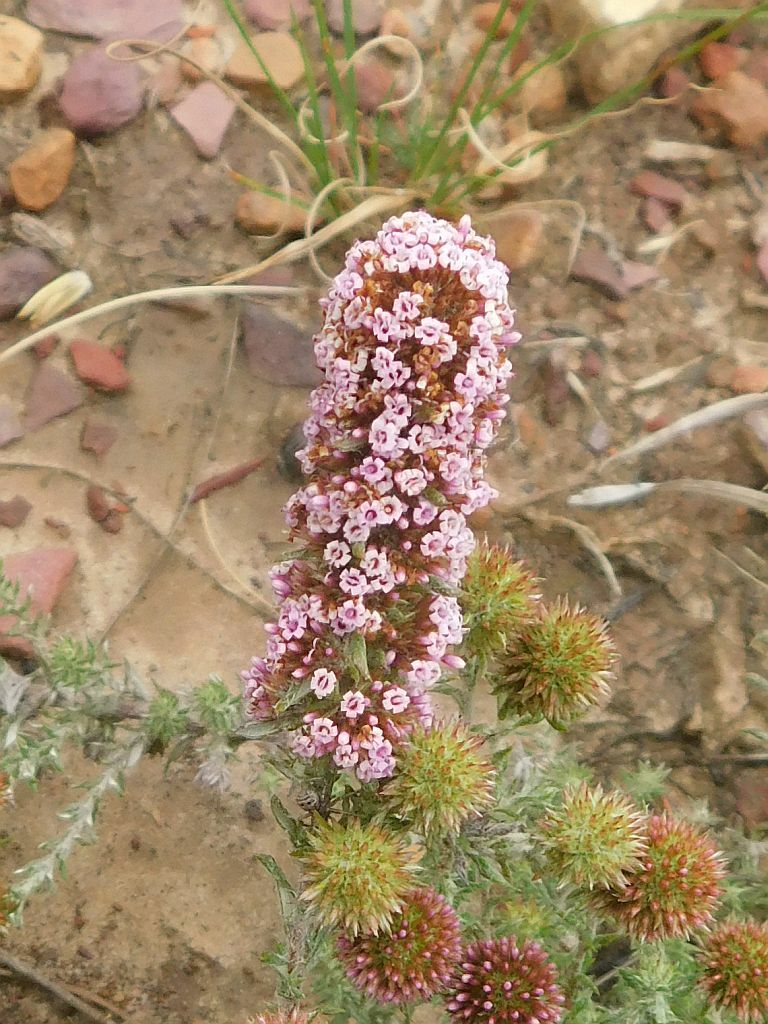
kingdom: Plantae
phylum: Tracheophyta
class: Magnoliopsida
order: Asterales
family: Asteraceae
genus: Stoebe
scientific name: Stoebe capitata
